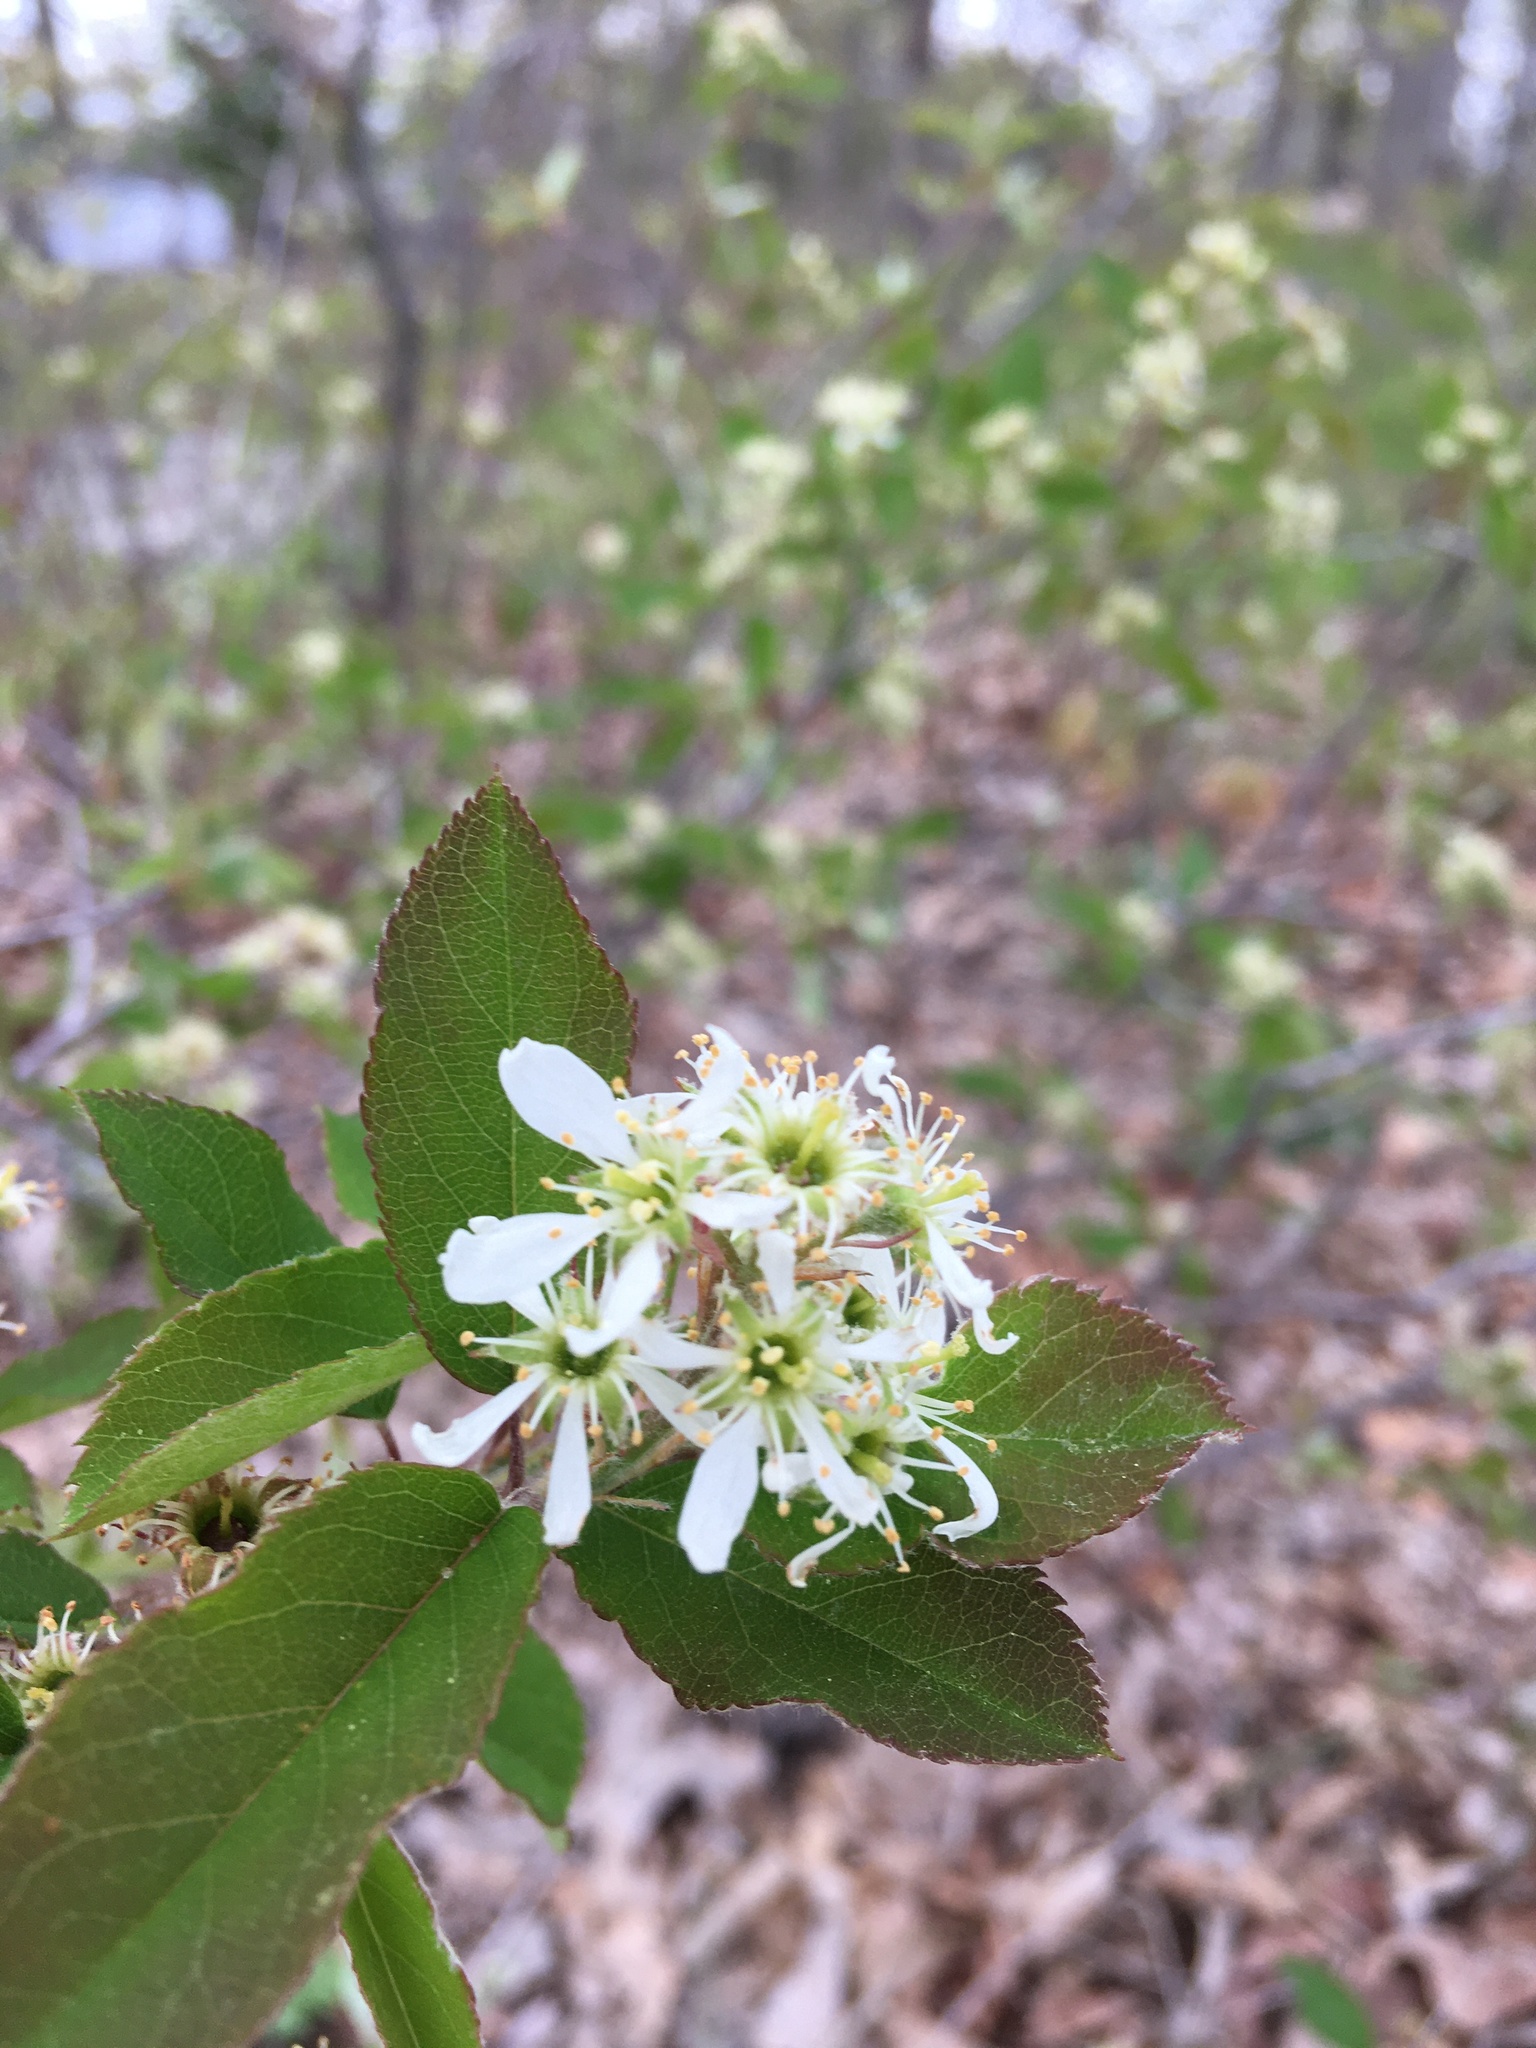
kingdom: Plantae
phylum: Tracheophyta
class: Magnoliopsida
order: Rosales
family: Rosaceae
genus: Amelanchier
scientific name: Amelanchier nantucketensis
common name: Nantucket shadbush
